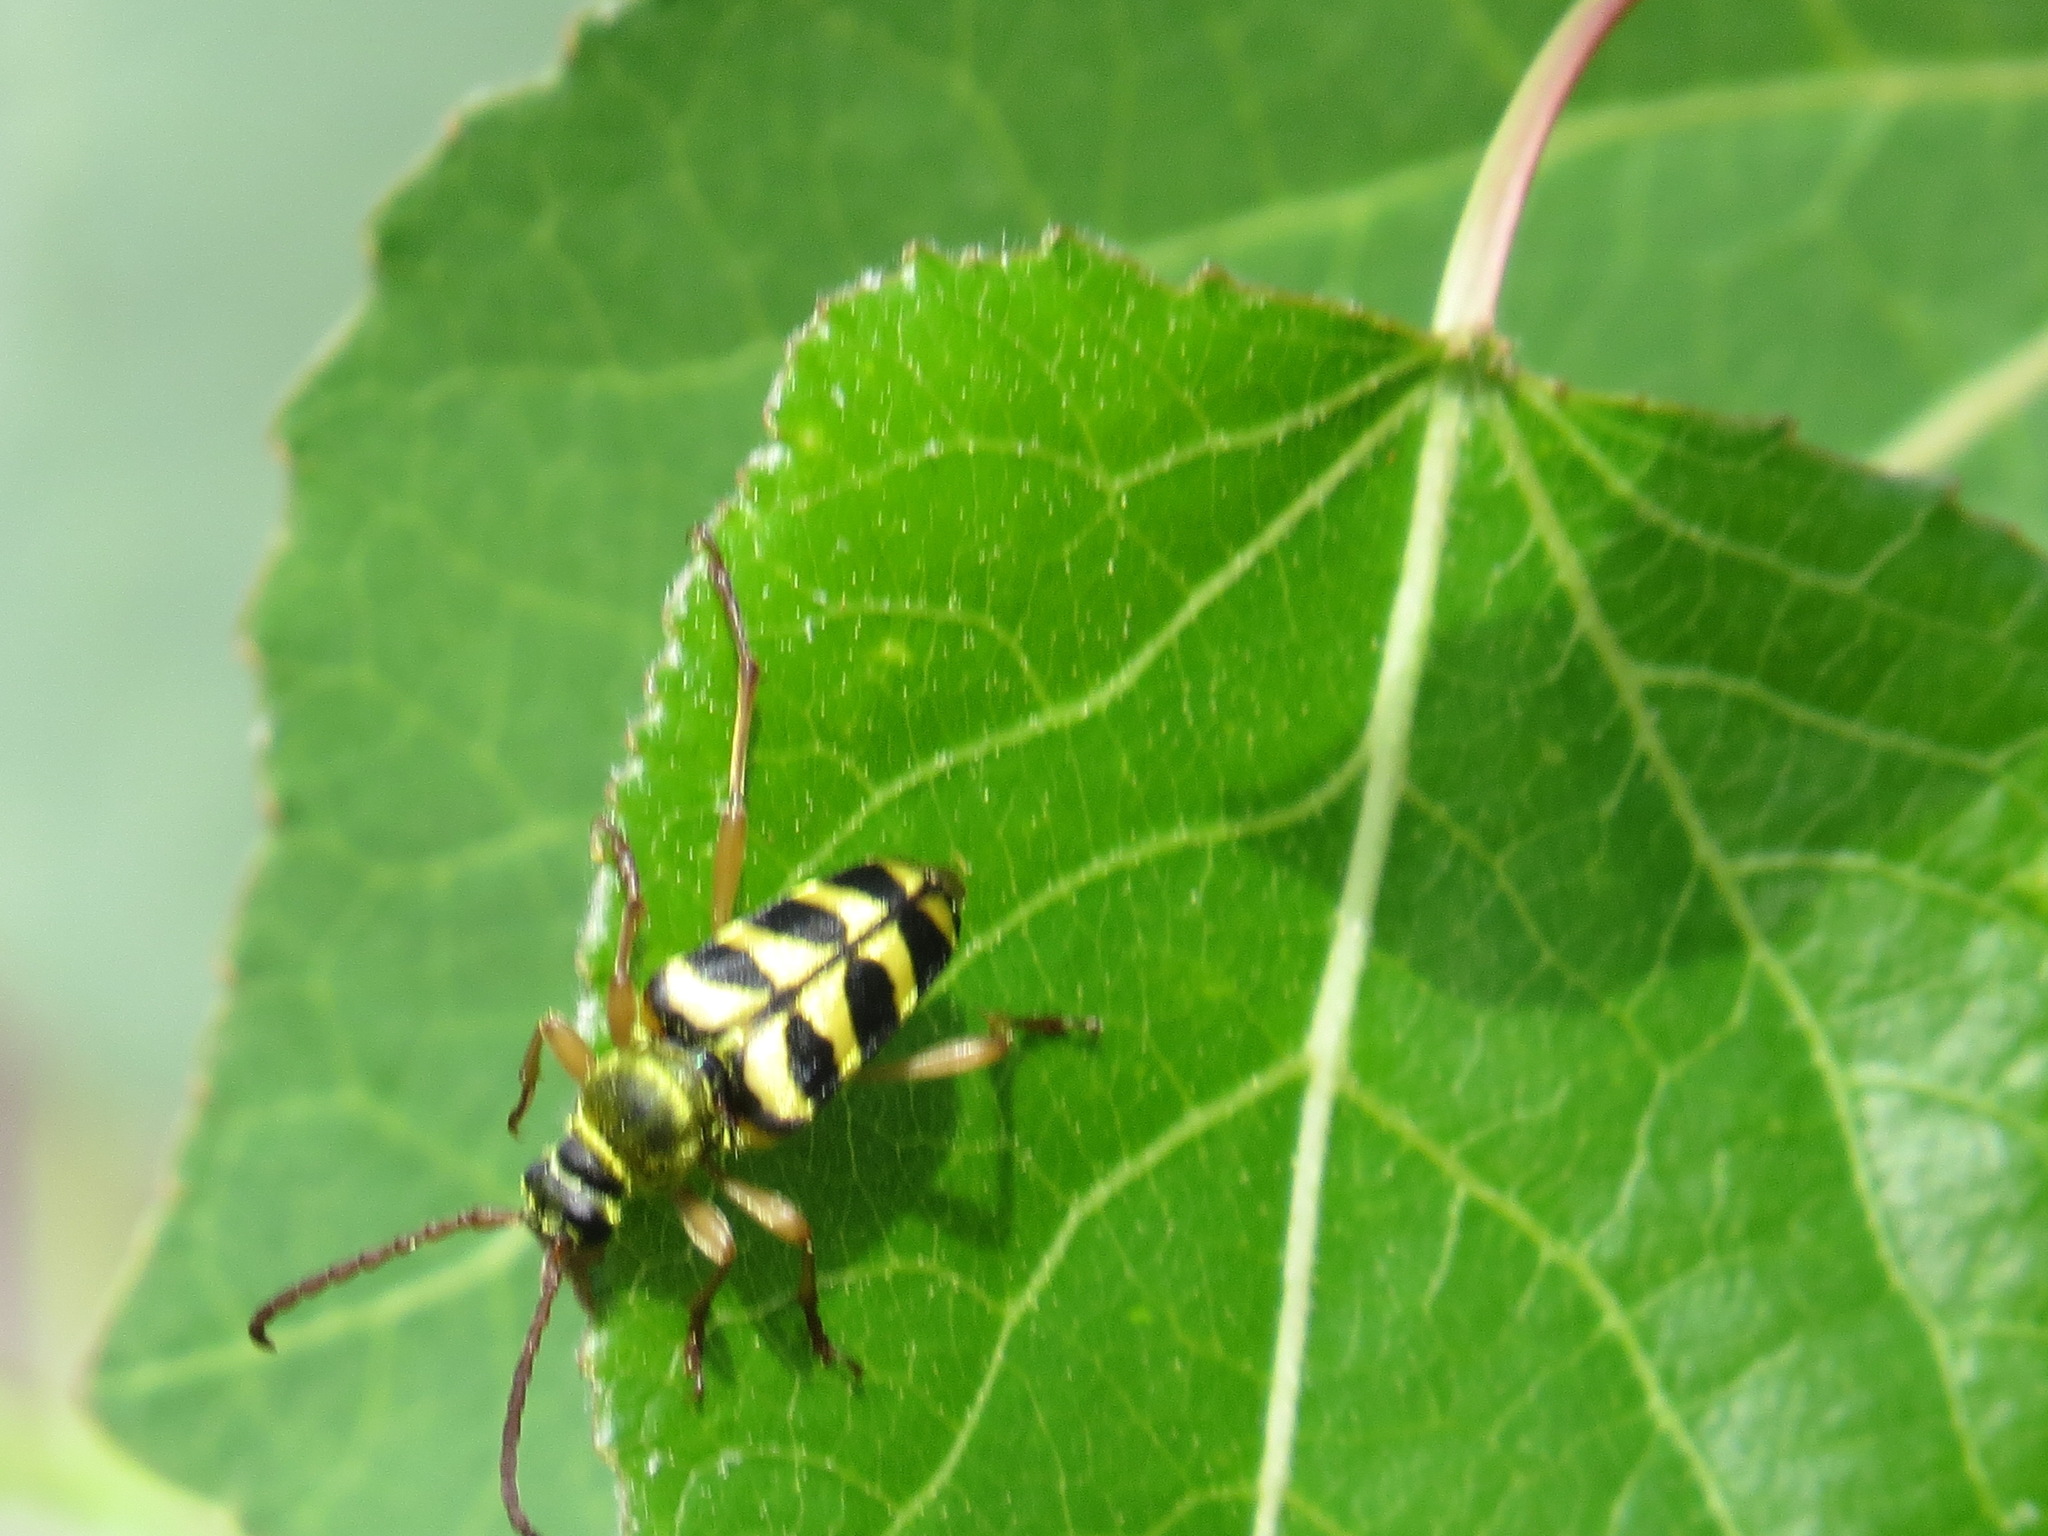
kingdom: Animalia
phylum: Arthropoda
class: Insecta
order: Coleoptera
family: Cerambycidae
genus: Strophiona
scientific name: Strophiona tigrina
